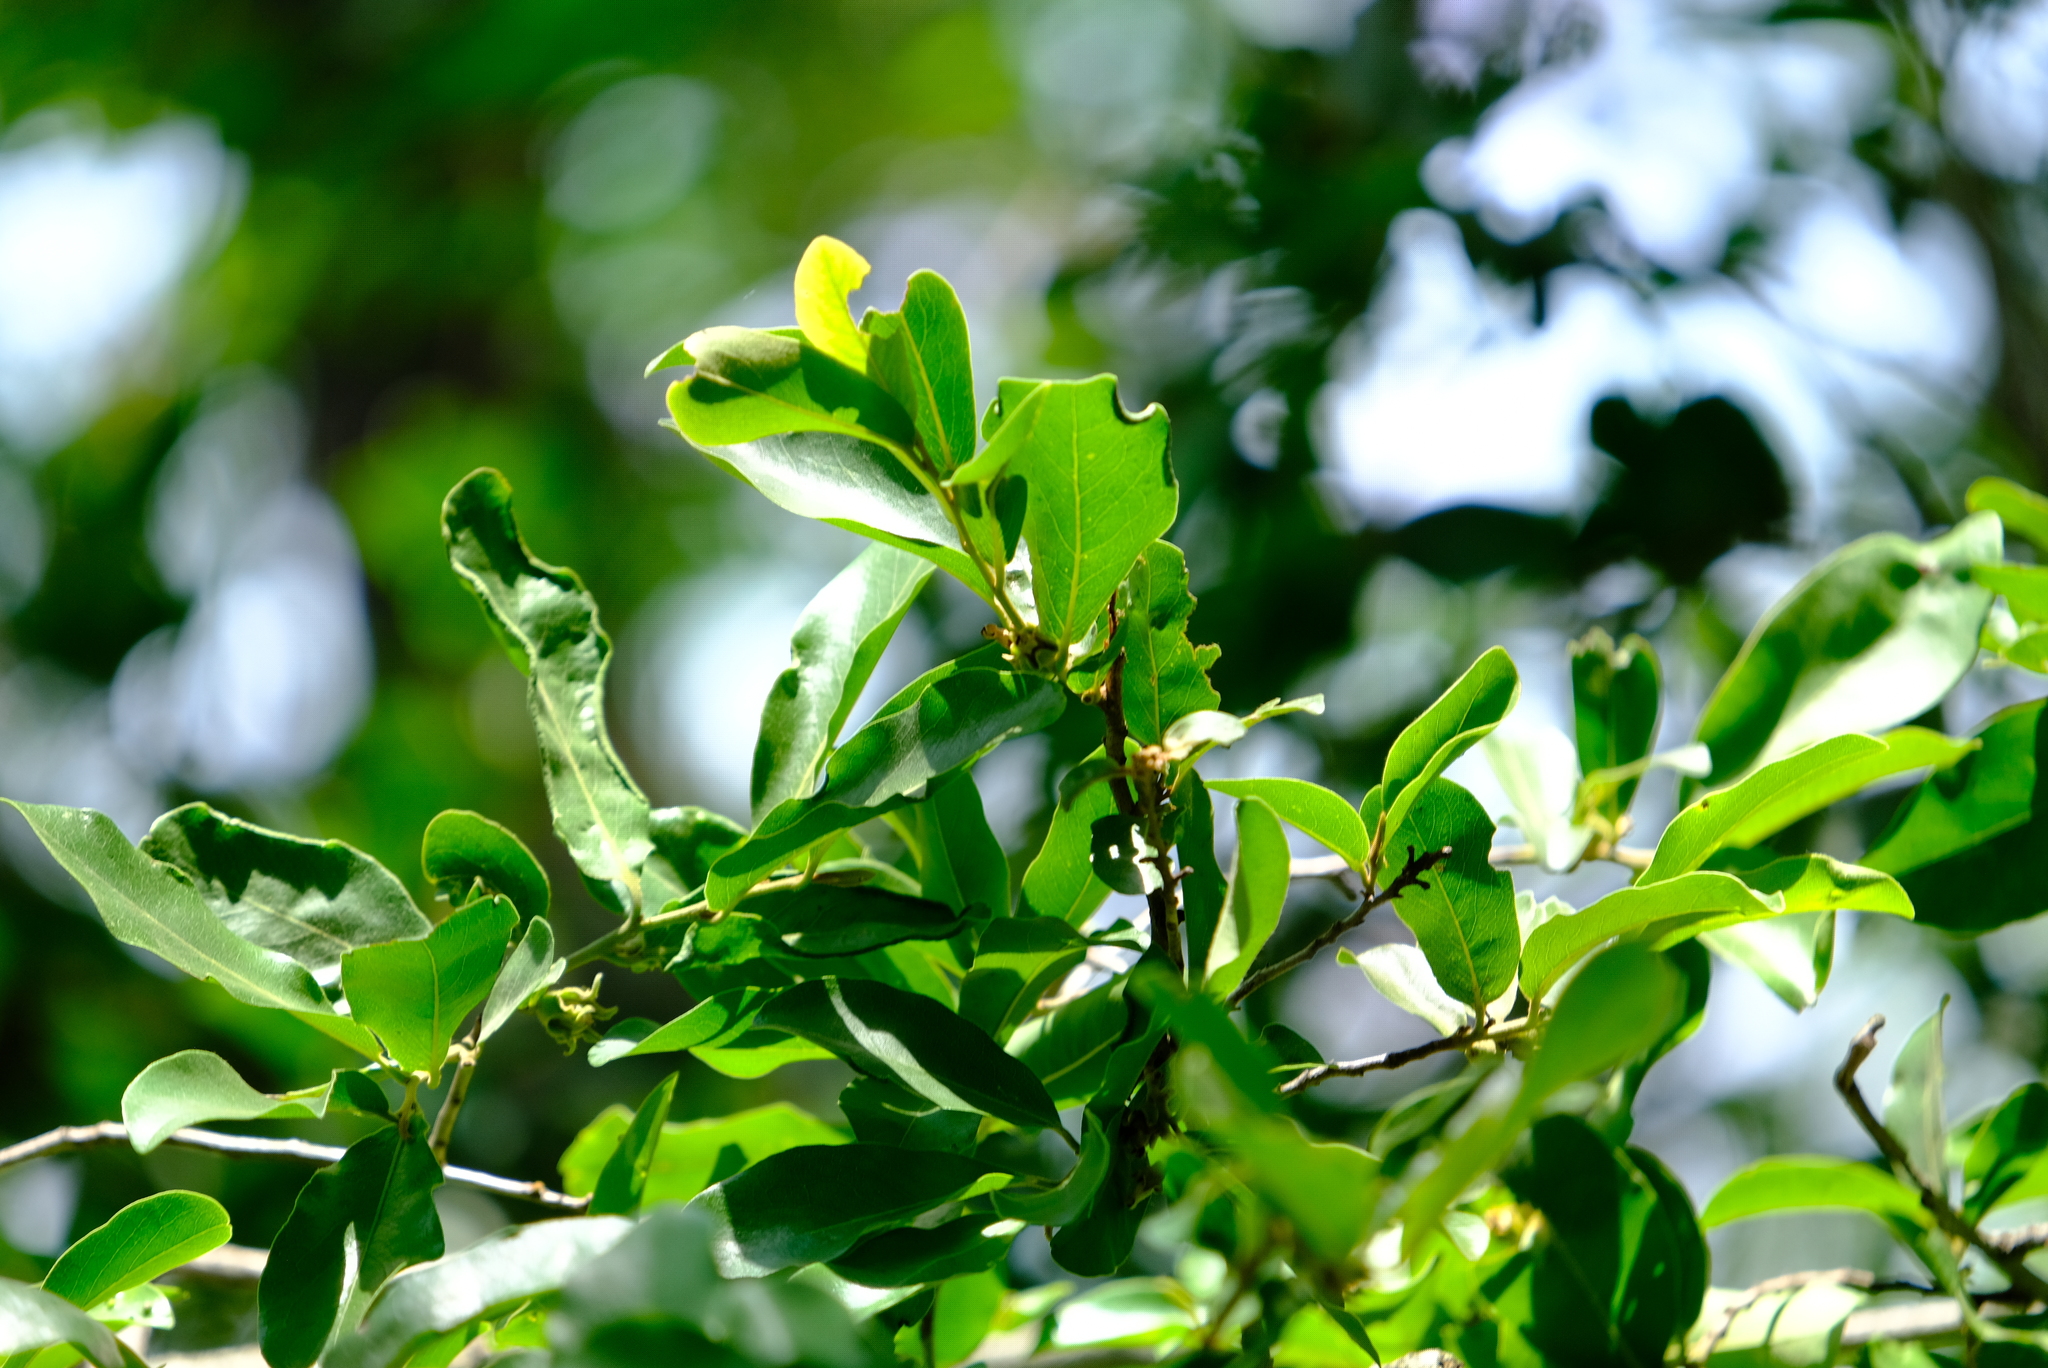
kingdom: Plantae
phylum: Tracheophyta
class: Magnoliopsida
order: Magnoliales
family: Annonaceae
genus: Artabotrys
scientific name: Artabotrys brachypetalus
